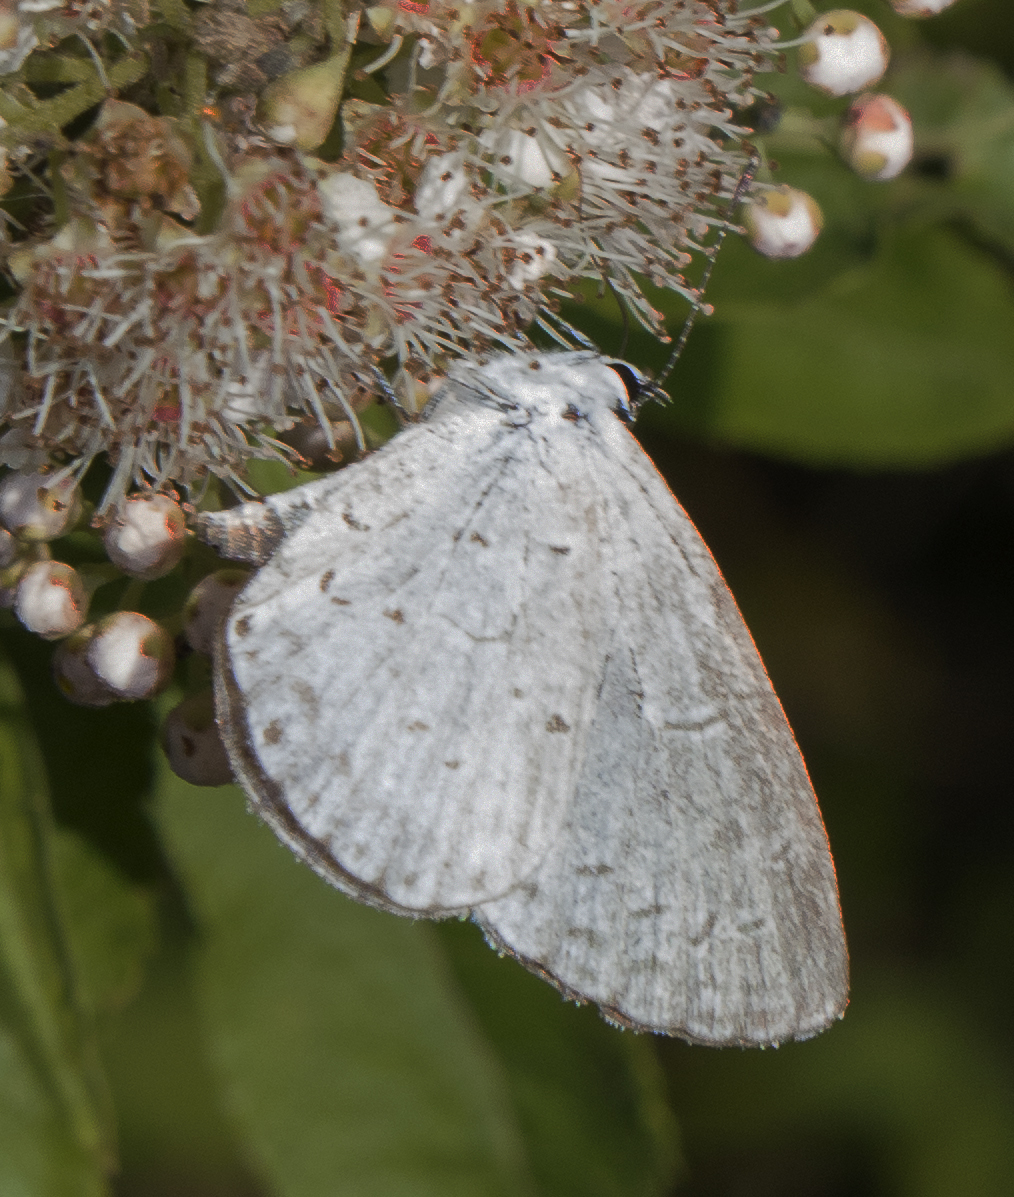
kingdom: Animalia
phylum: Arthropoda
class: Insecta
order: Lepidoptera
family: Lycaenidae
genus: Cyaniris
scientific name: Cyaniris neglecta
